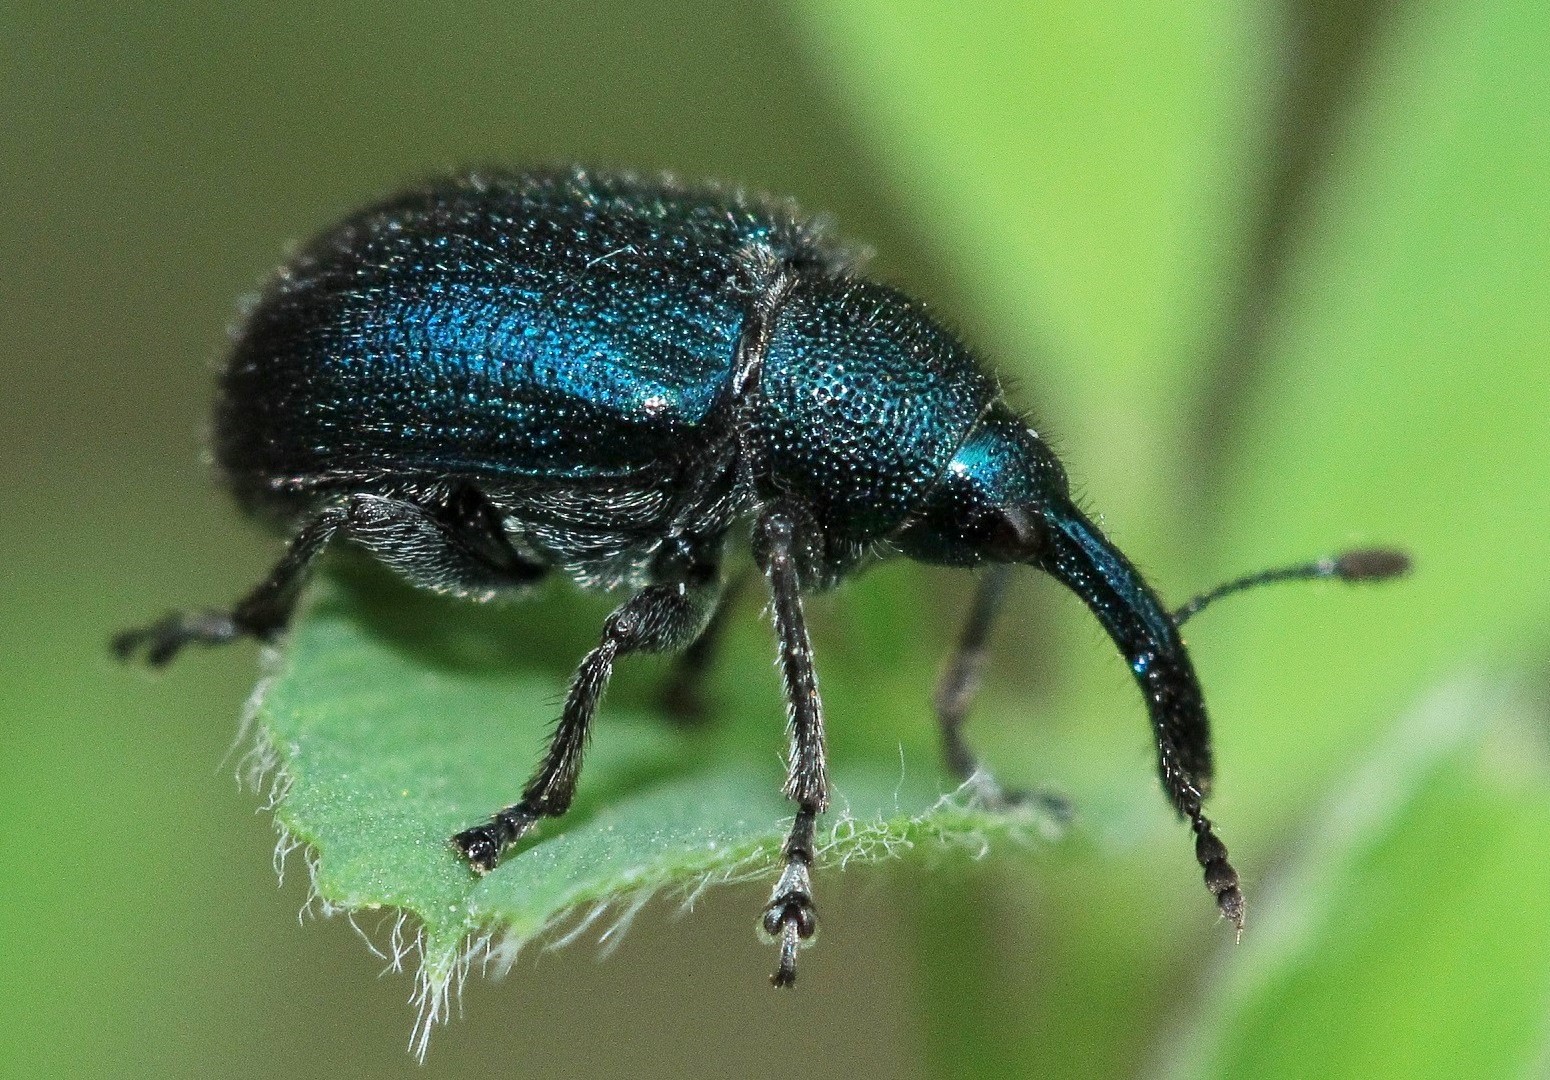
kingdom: Animalia
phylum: Arthropoda
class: Insecta
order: Coleoptera
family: Attelabidae
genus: Involvulus
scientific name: Involvulus pubescens
